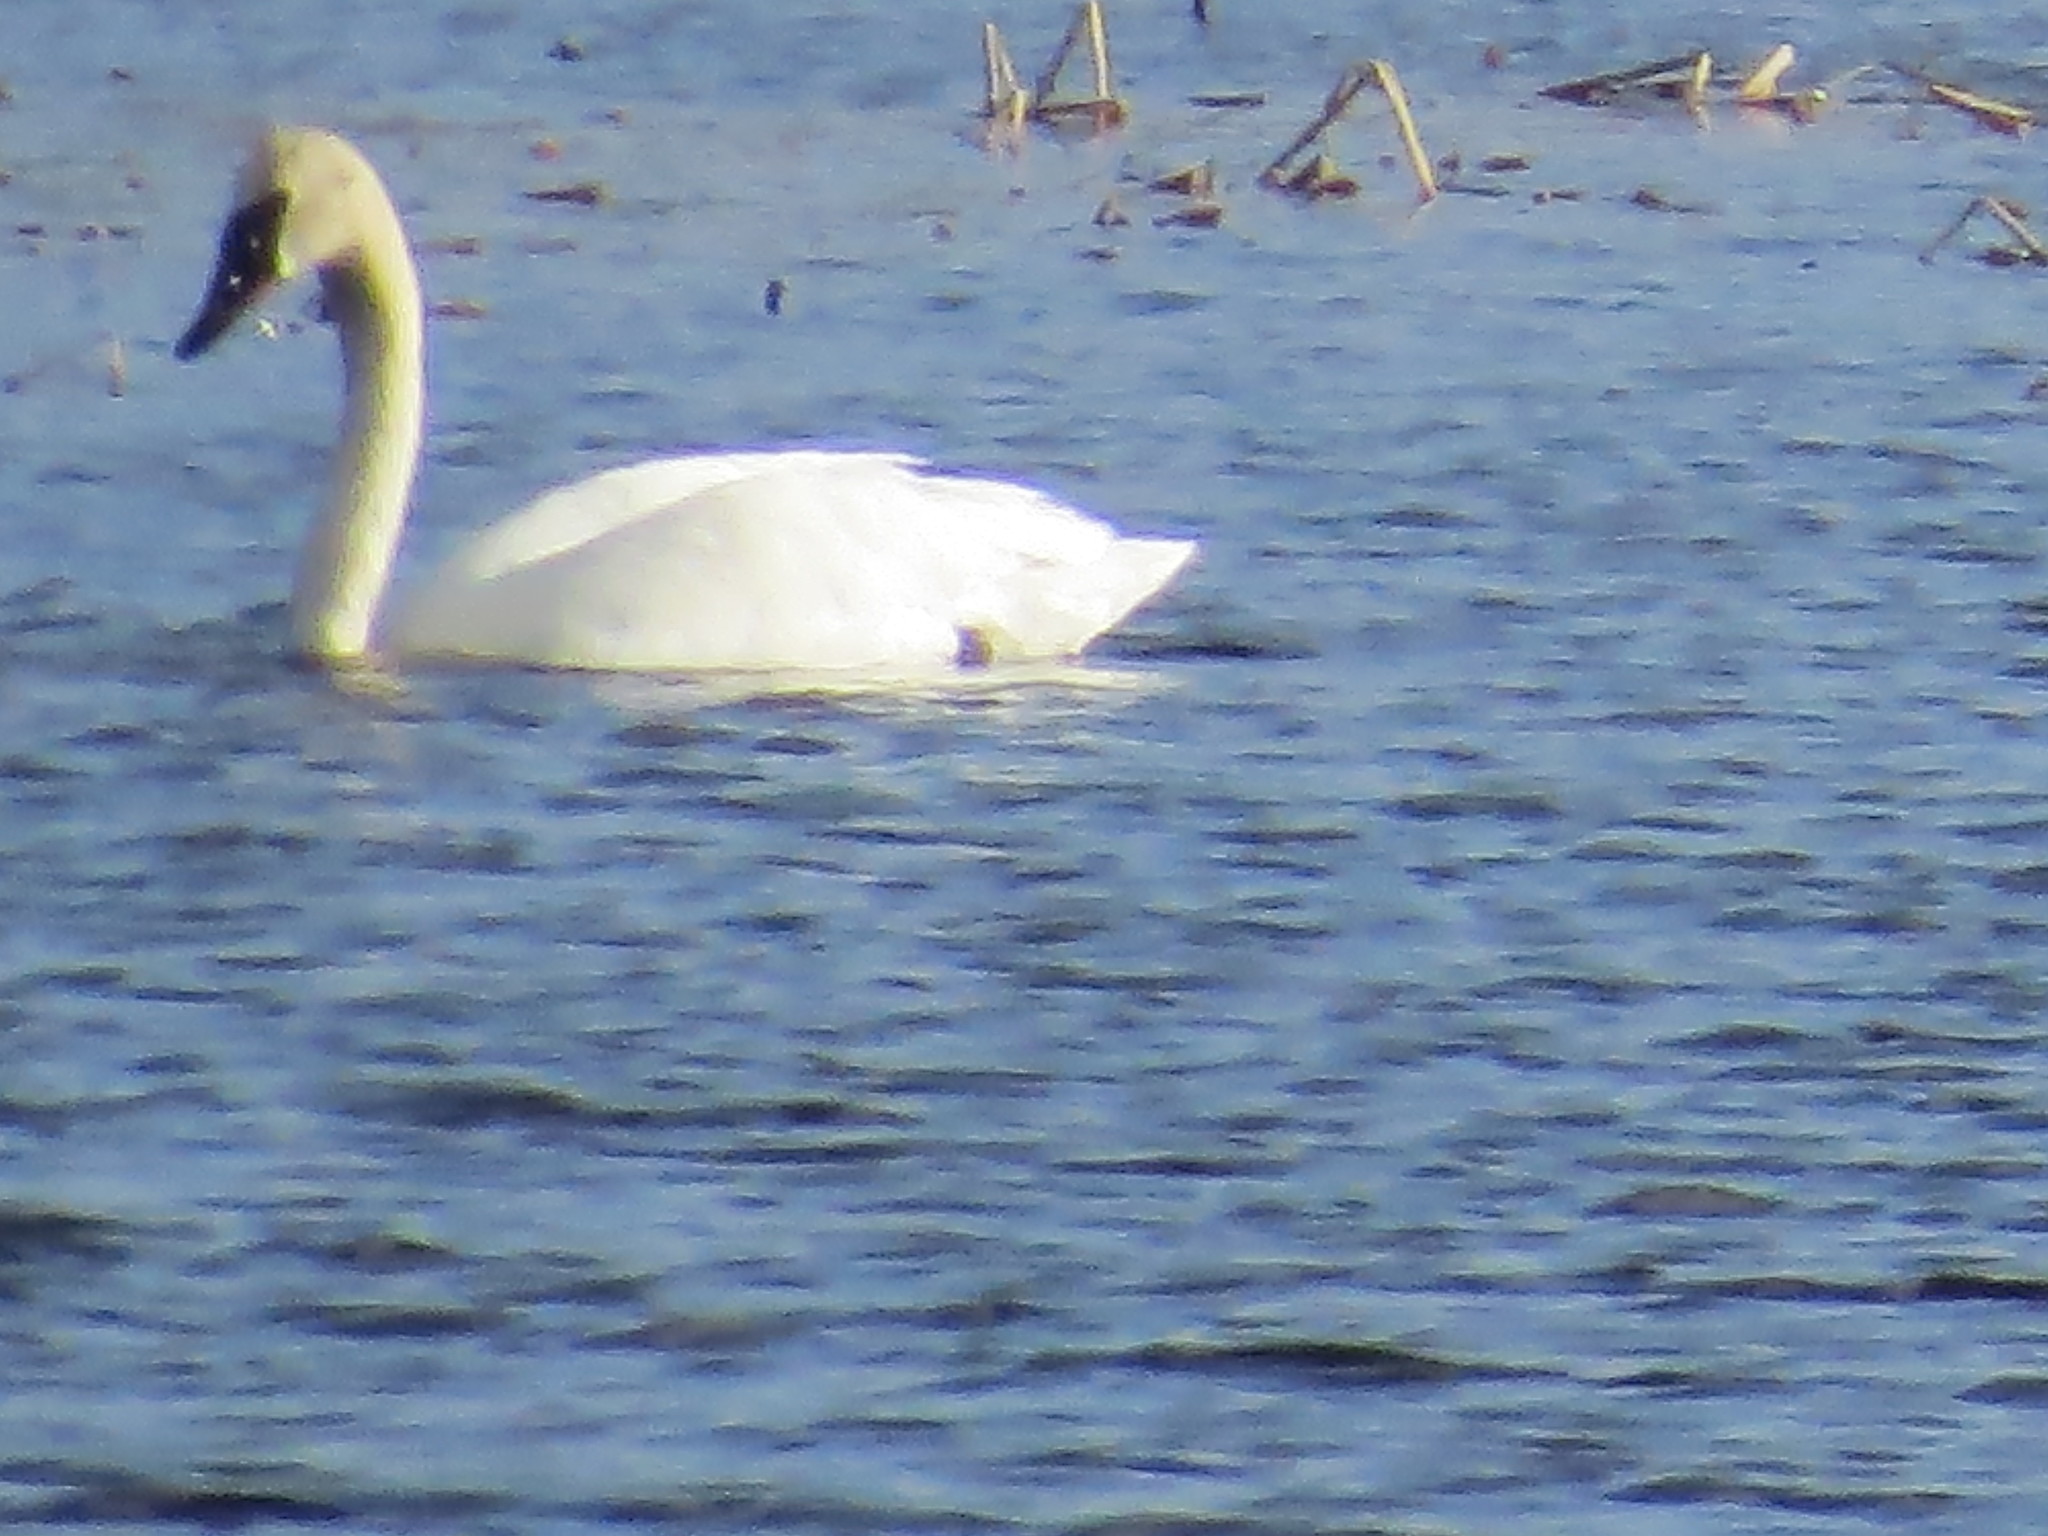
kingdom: Animalia
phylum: Chordata
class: Aves
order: Anseriformes
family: Anatidae
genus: Cygnus
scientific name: Cygnus buccinator
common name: Trumpeter swan
